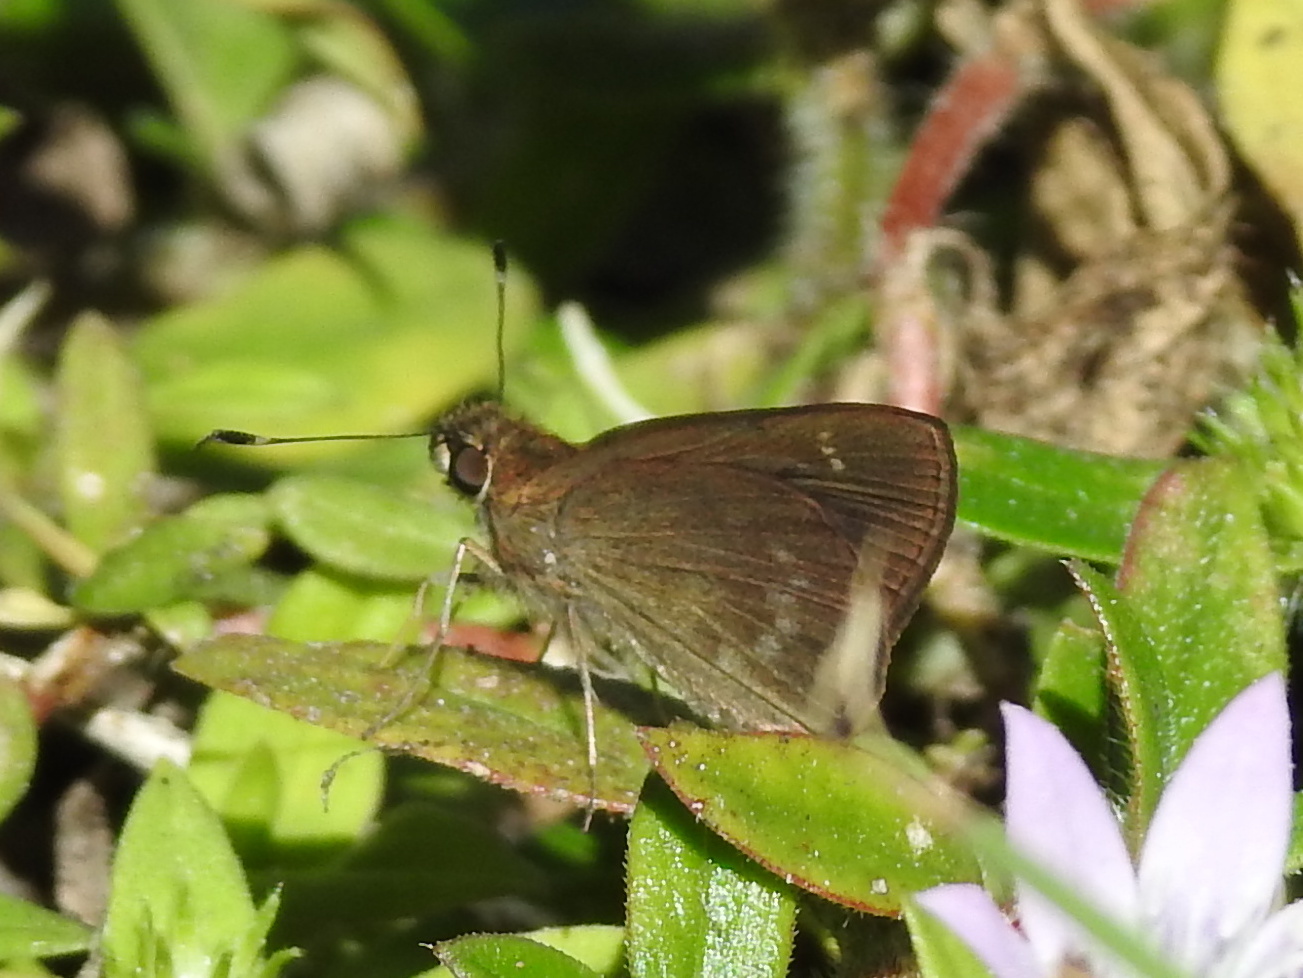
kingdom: Animalia
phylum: Arthropoda
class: Insecta
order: Lepidoptera
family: Hesperiidae
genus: Cymaenes
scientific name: Cymaenes tripunctus
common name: Dingy dotted skipper
